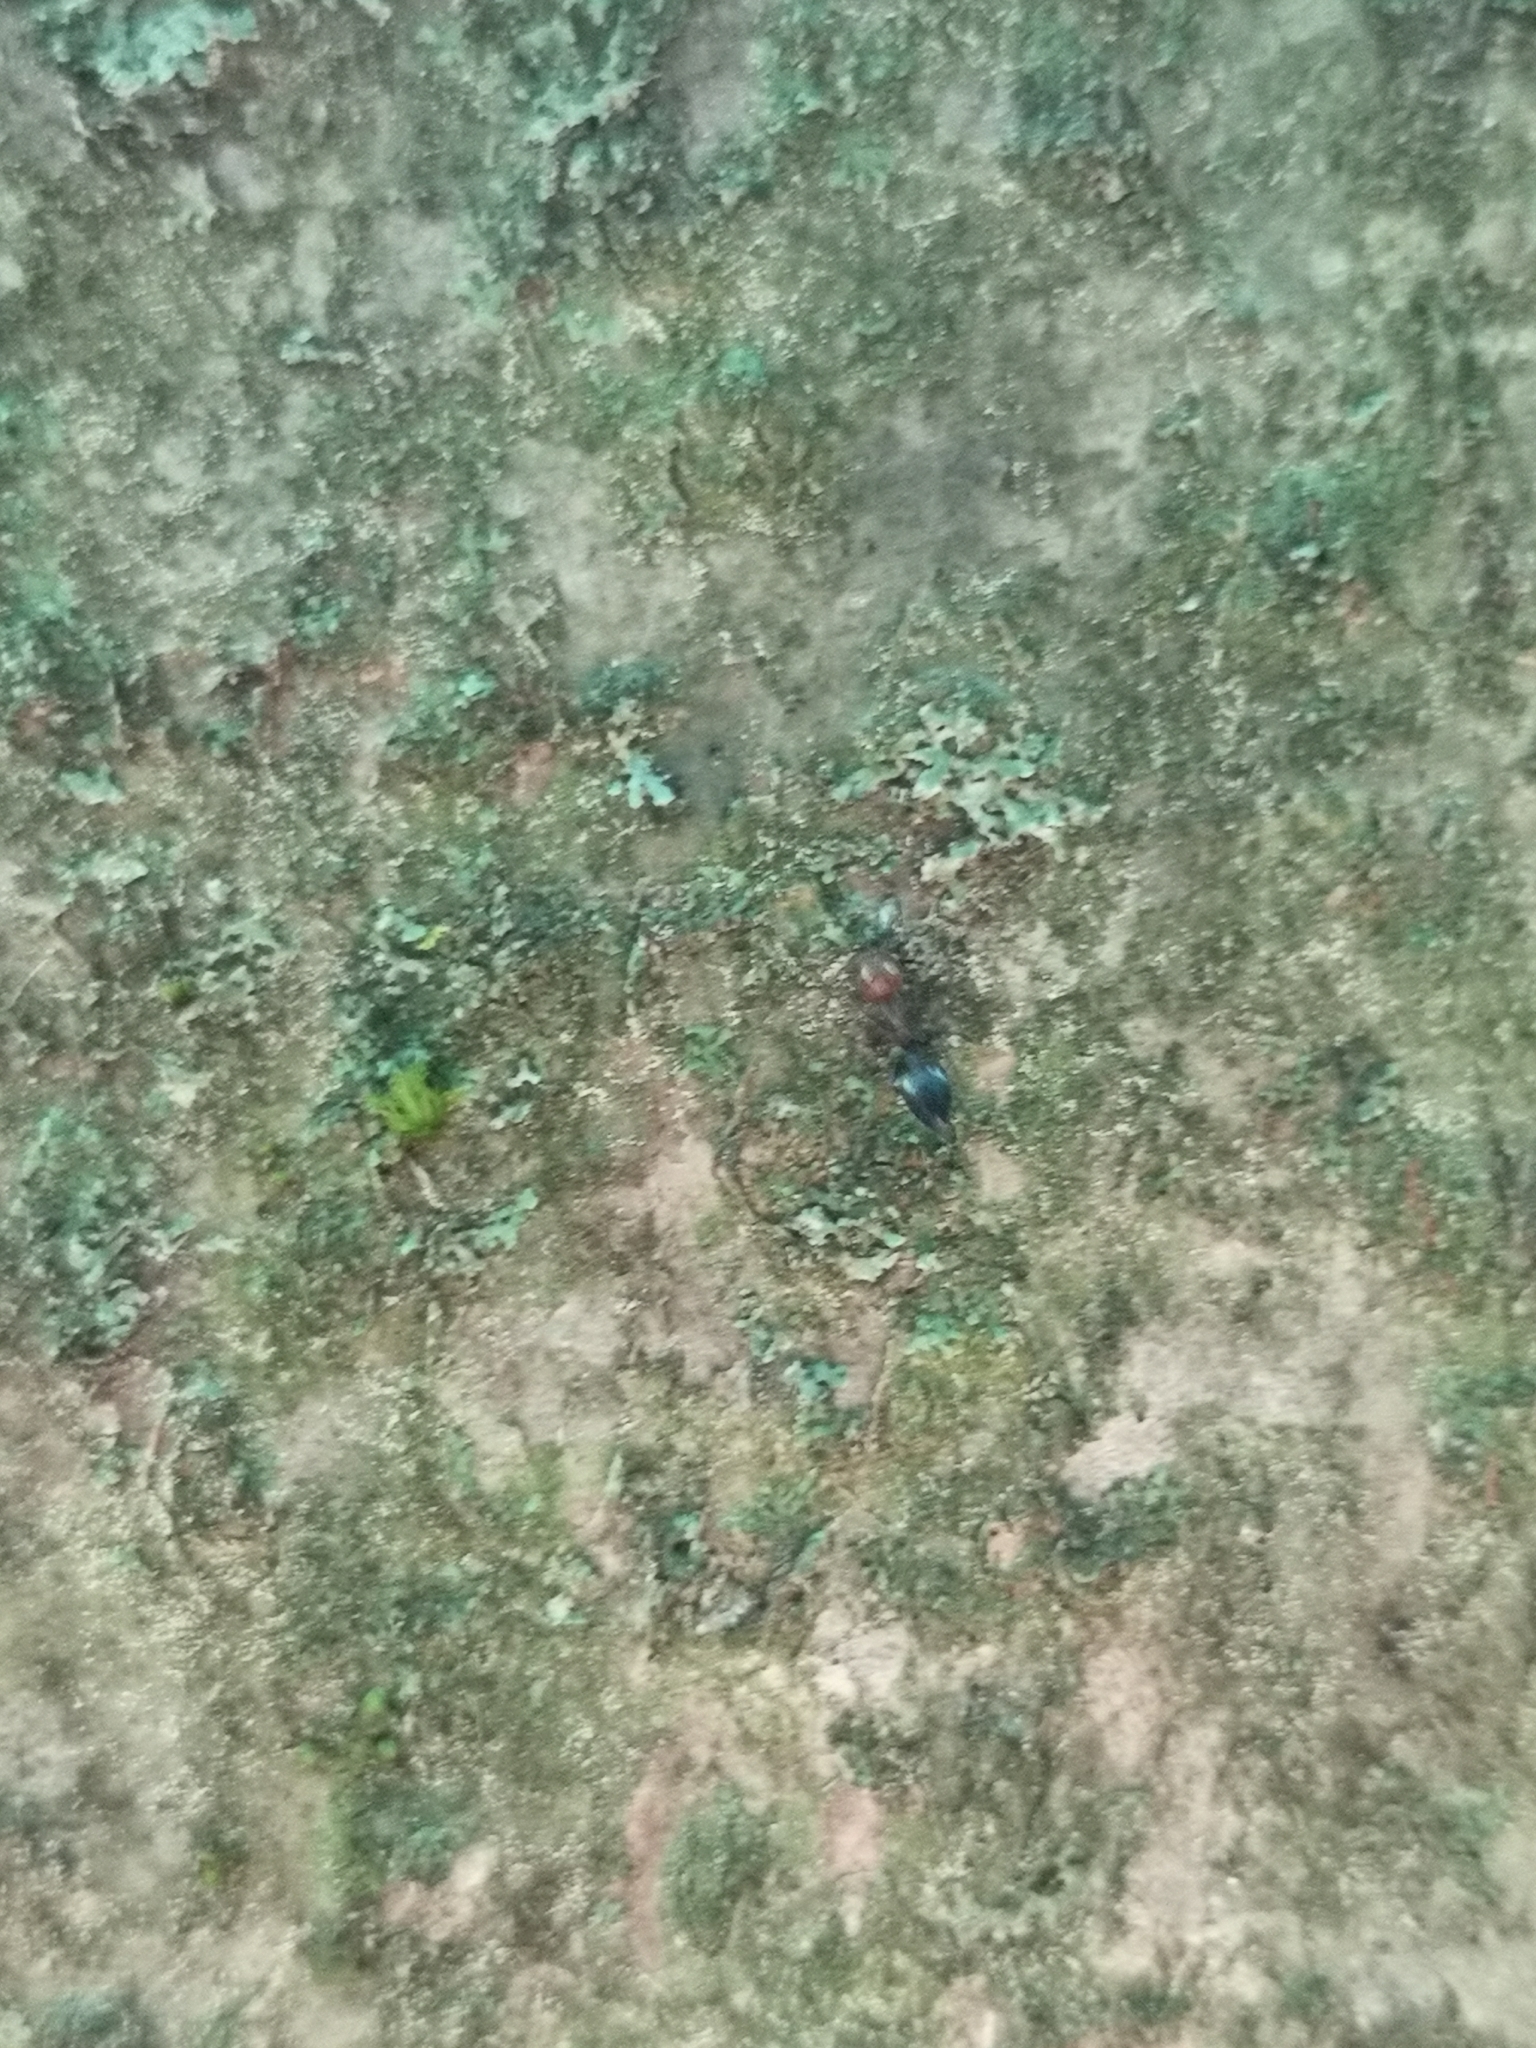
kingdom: Animalia
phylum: Arthropoda
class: Insecta
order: Hymenoptera
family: Formicidae
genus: Crematogaster
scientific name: Crematogaster scutellaris
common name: Fourmi du liège
